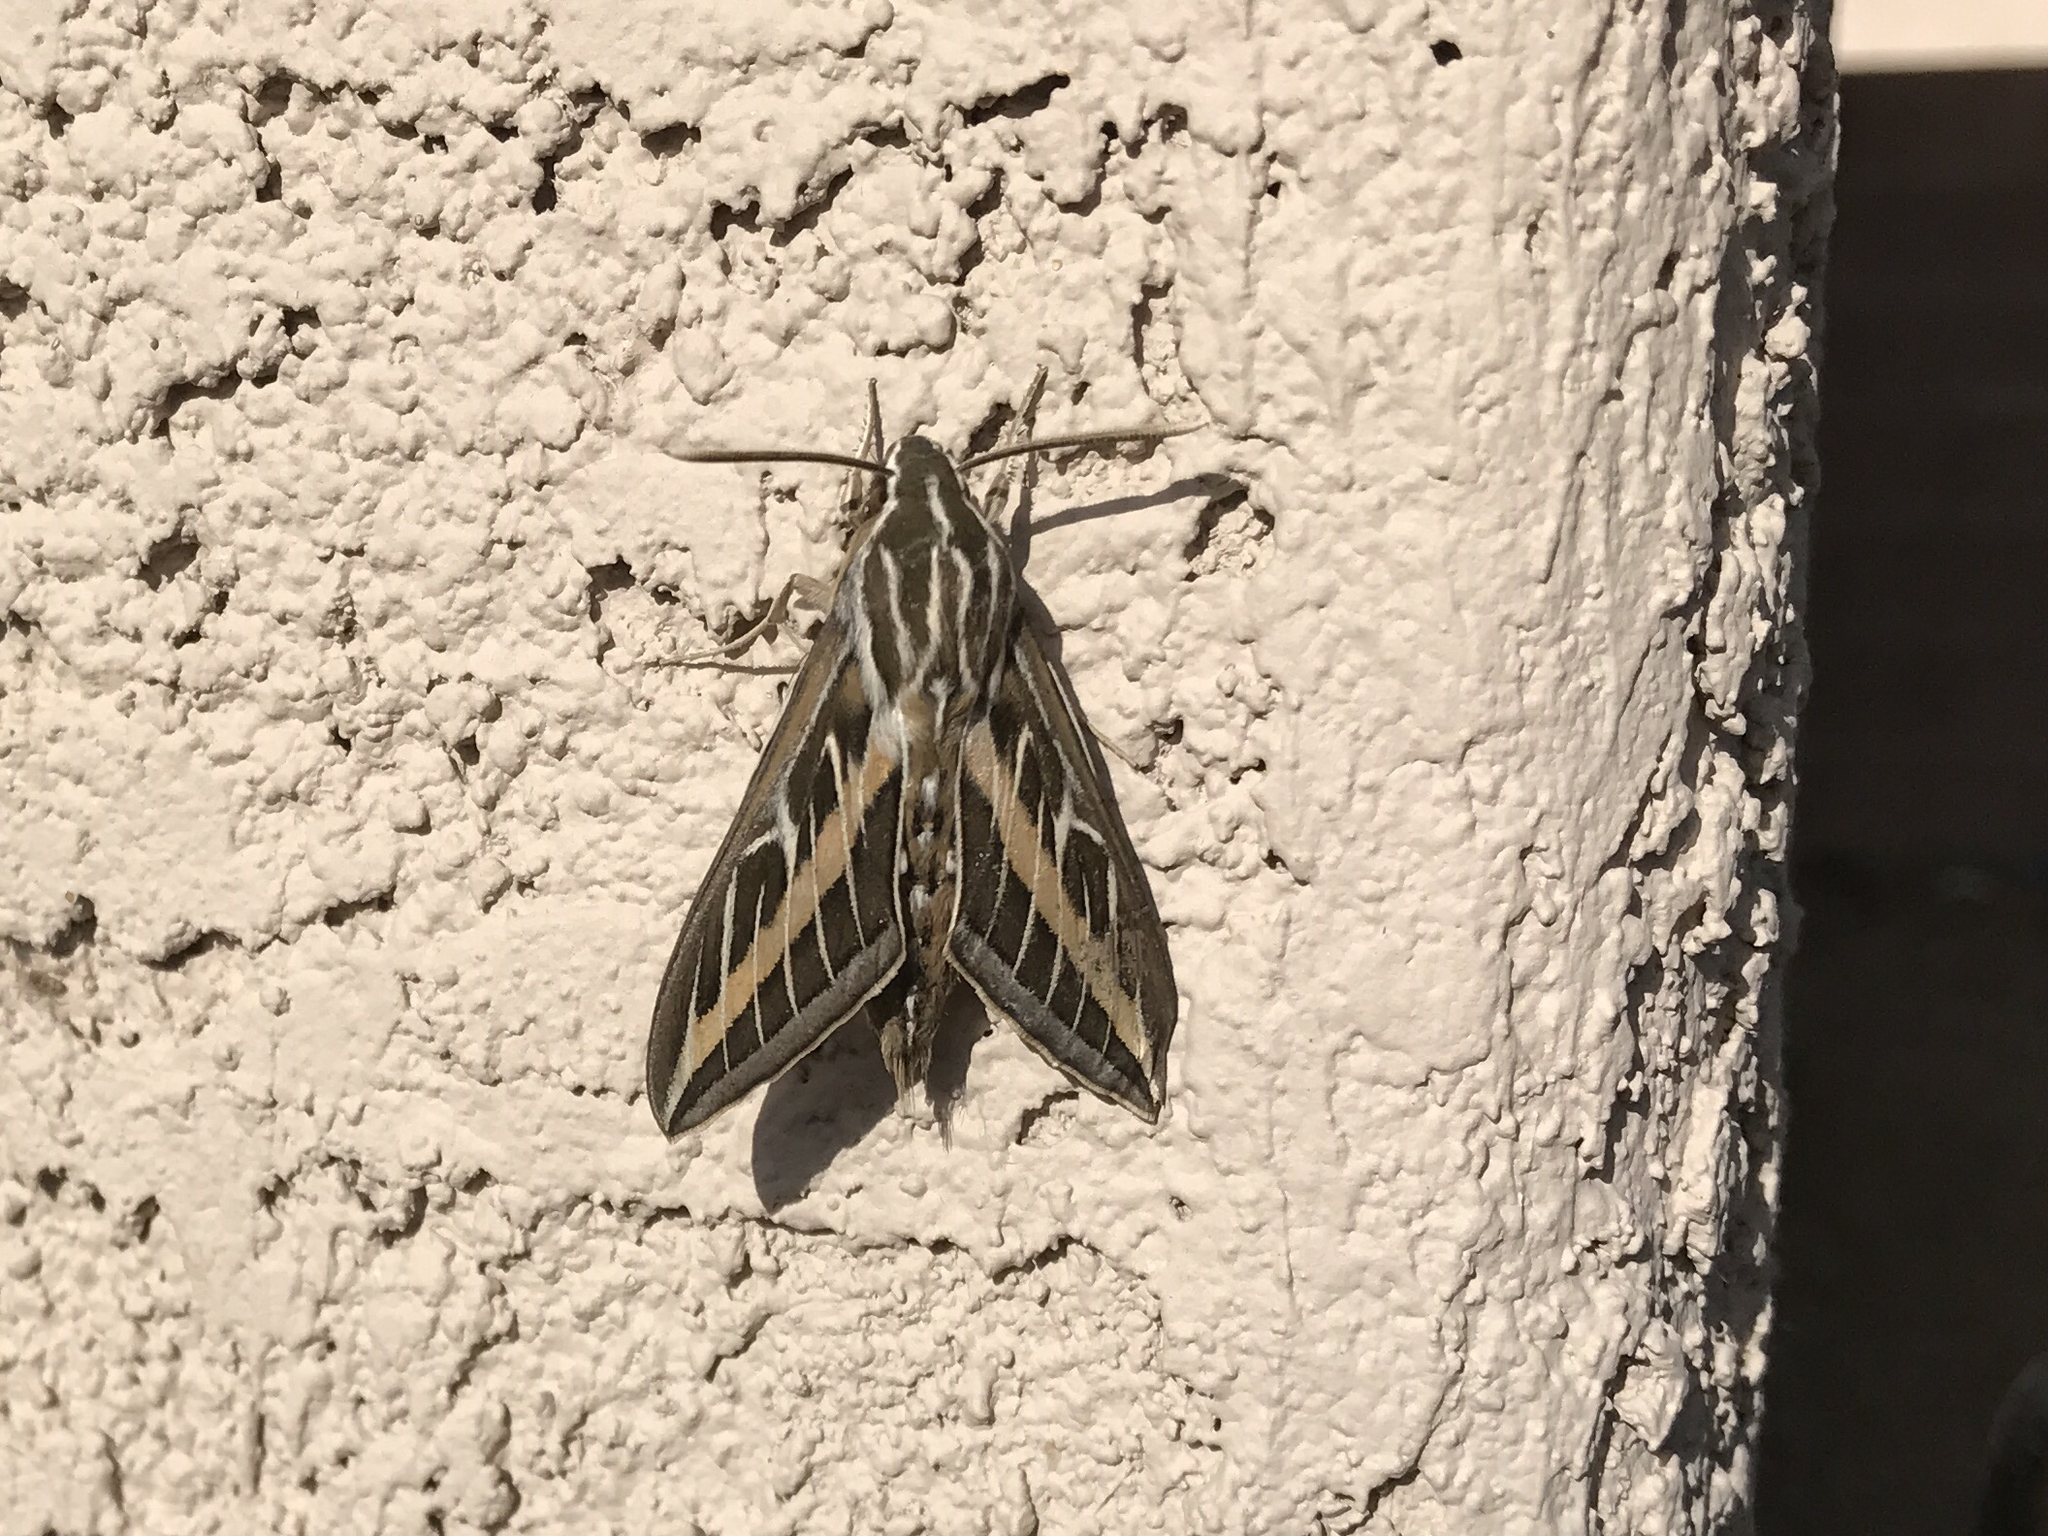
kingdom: Animalia
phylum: Arthropoda
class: Insecta
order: Lepidoptera
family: Sphingidae
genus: Hyles
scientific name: Hyles lineata
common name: White-lined sphinx
